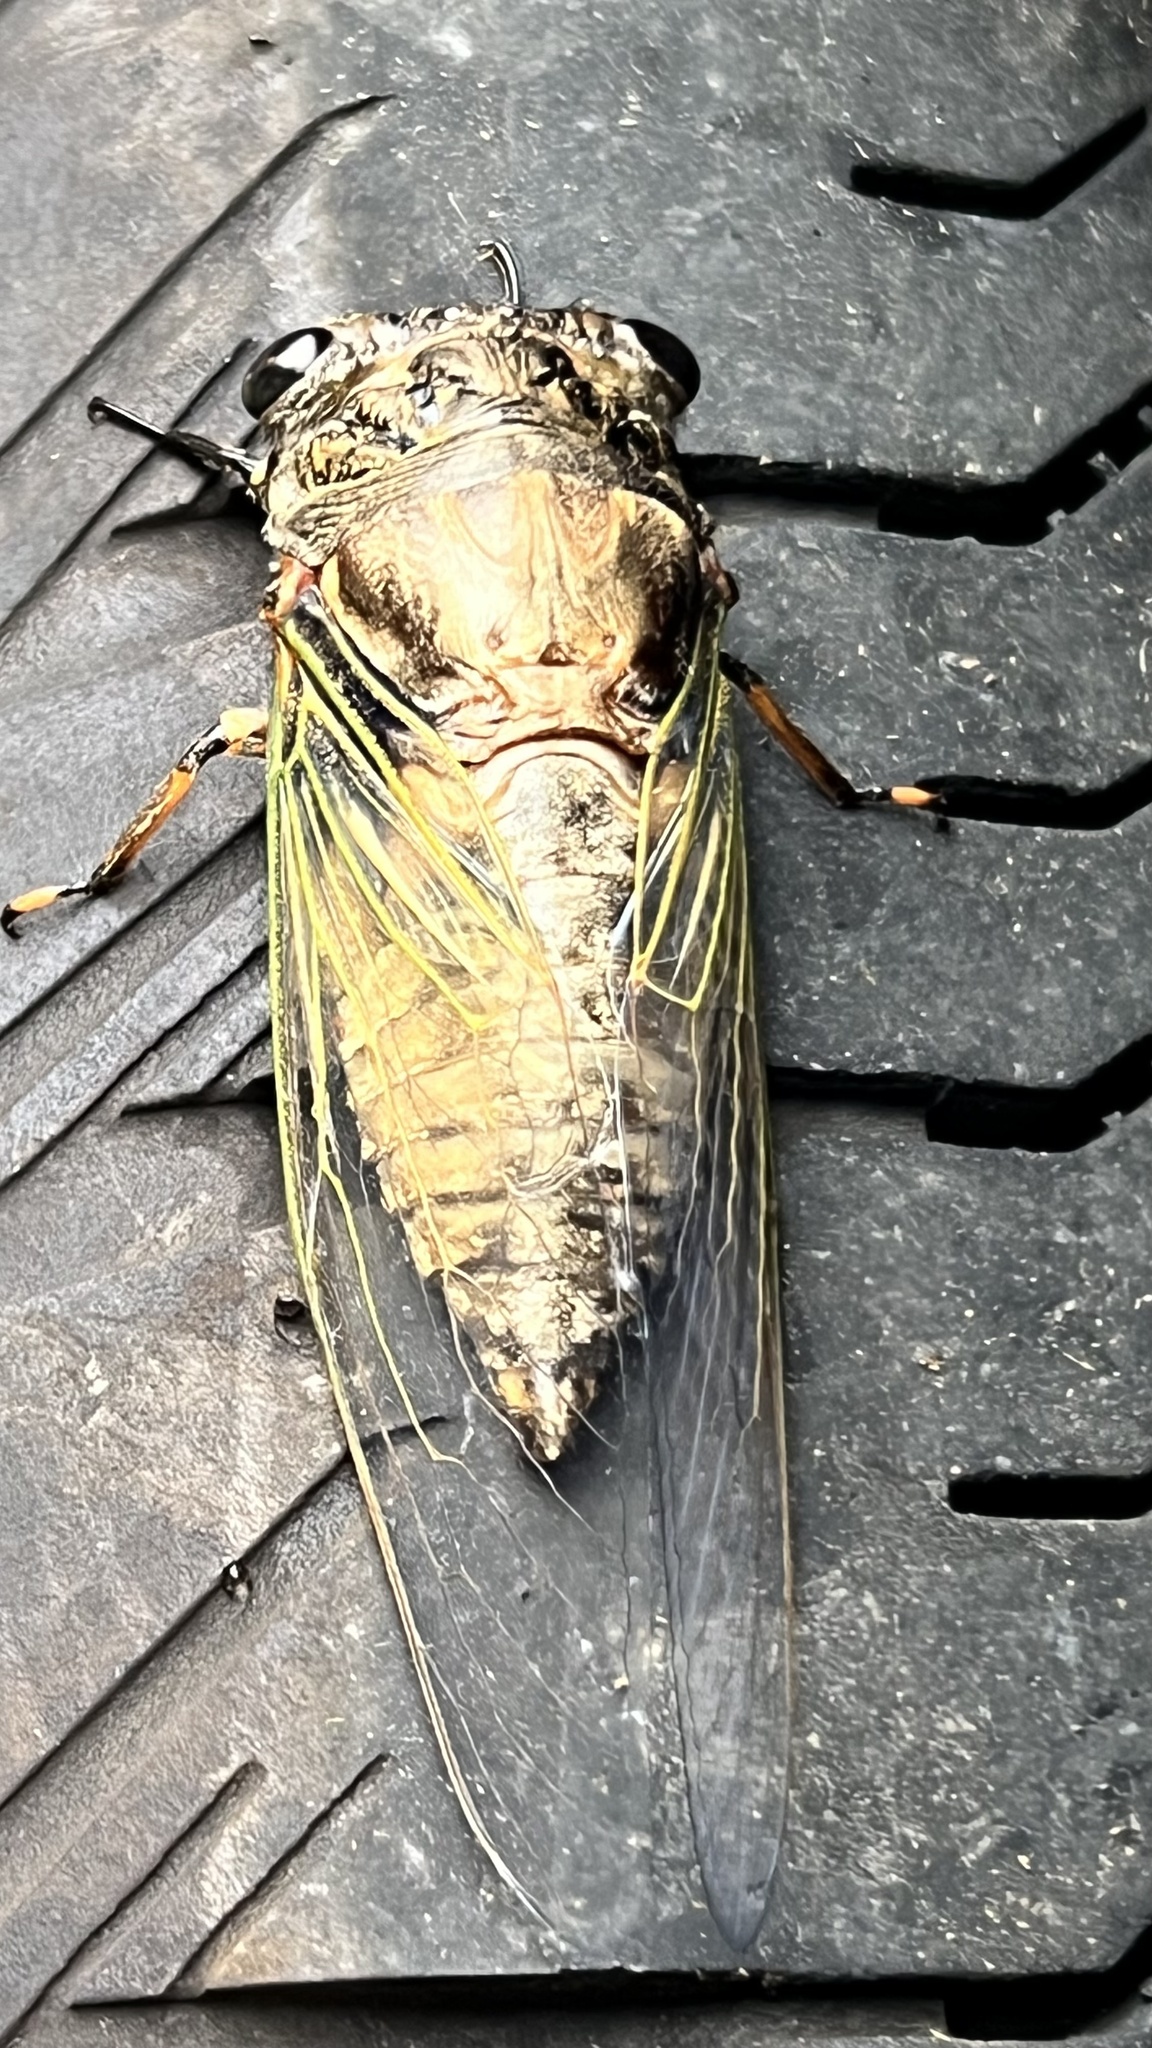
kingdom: Animalia
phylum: Arthropoda
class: Insecta
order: Hemiptera
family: Cicadidae
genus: Cryptotympana
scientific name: Cryptotympana takasagona
